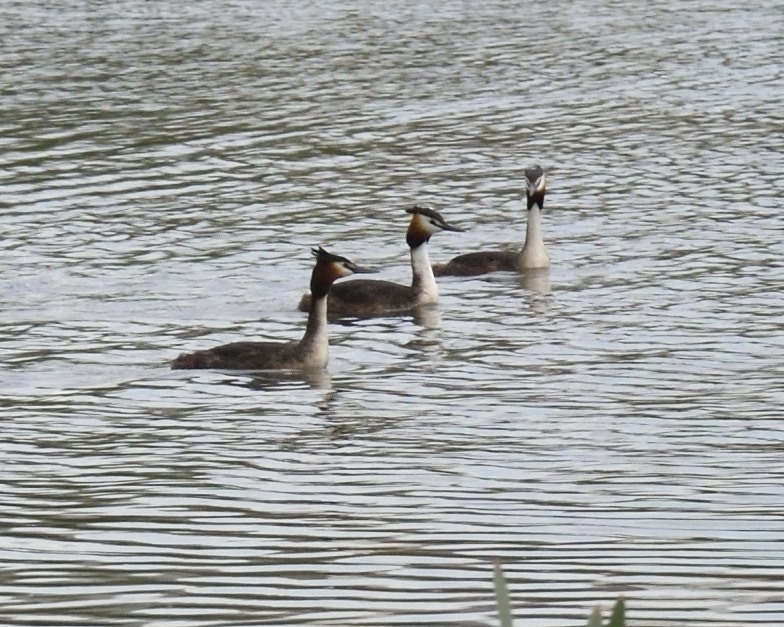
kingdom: Animalia
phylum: Chordata
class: Aves
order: Podicipediformes
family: Podicipedidae
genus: Podiceps
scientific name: Podiceps cristatus
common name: Great crested grebe
